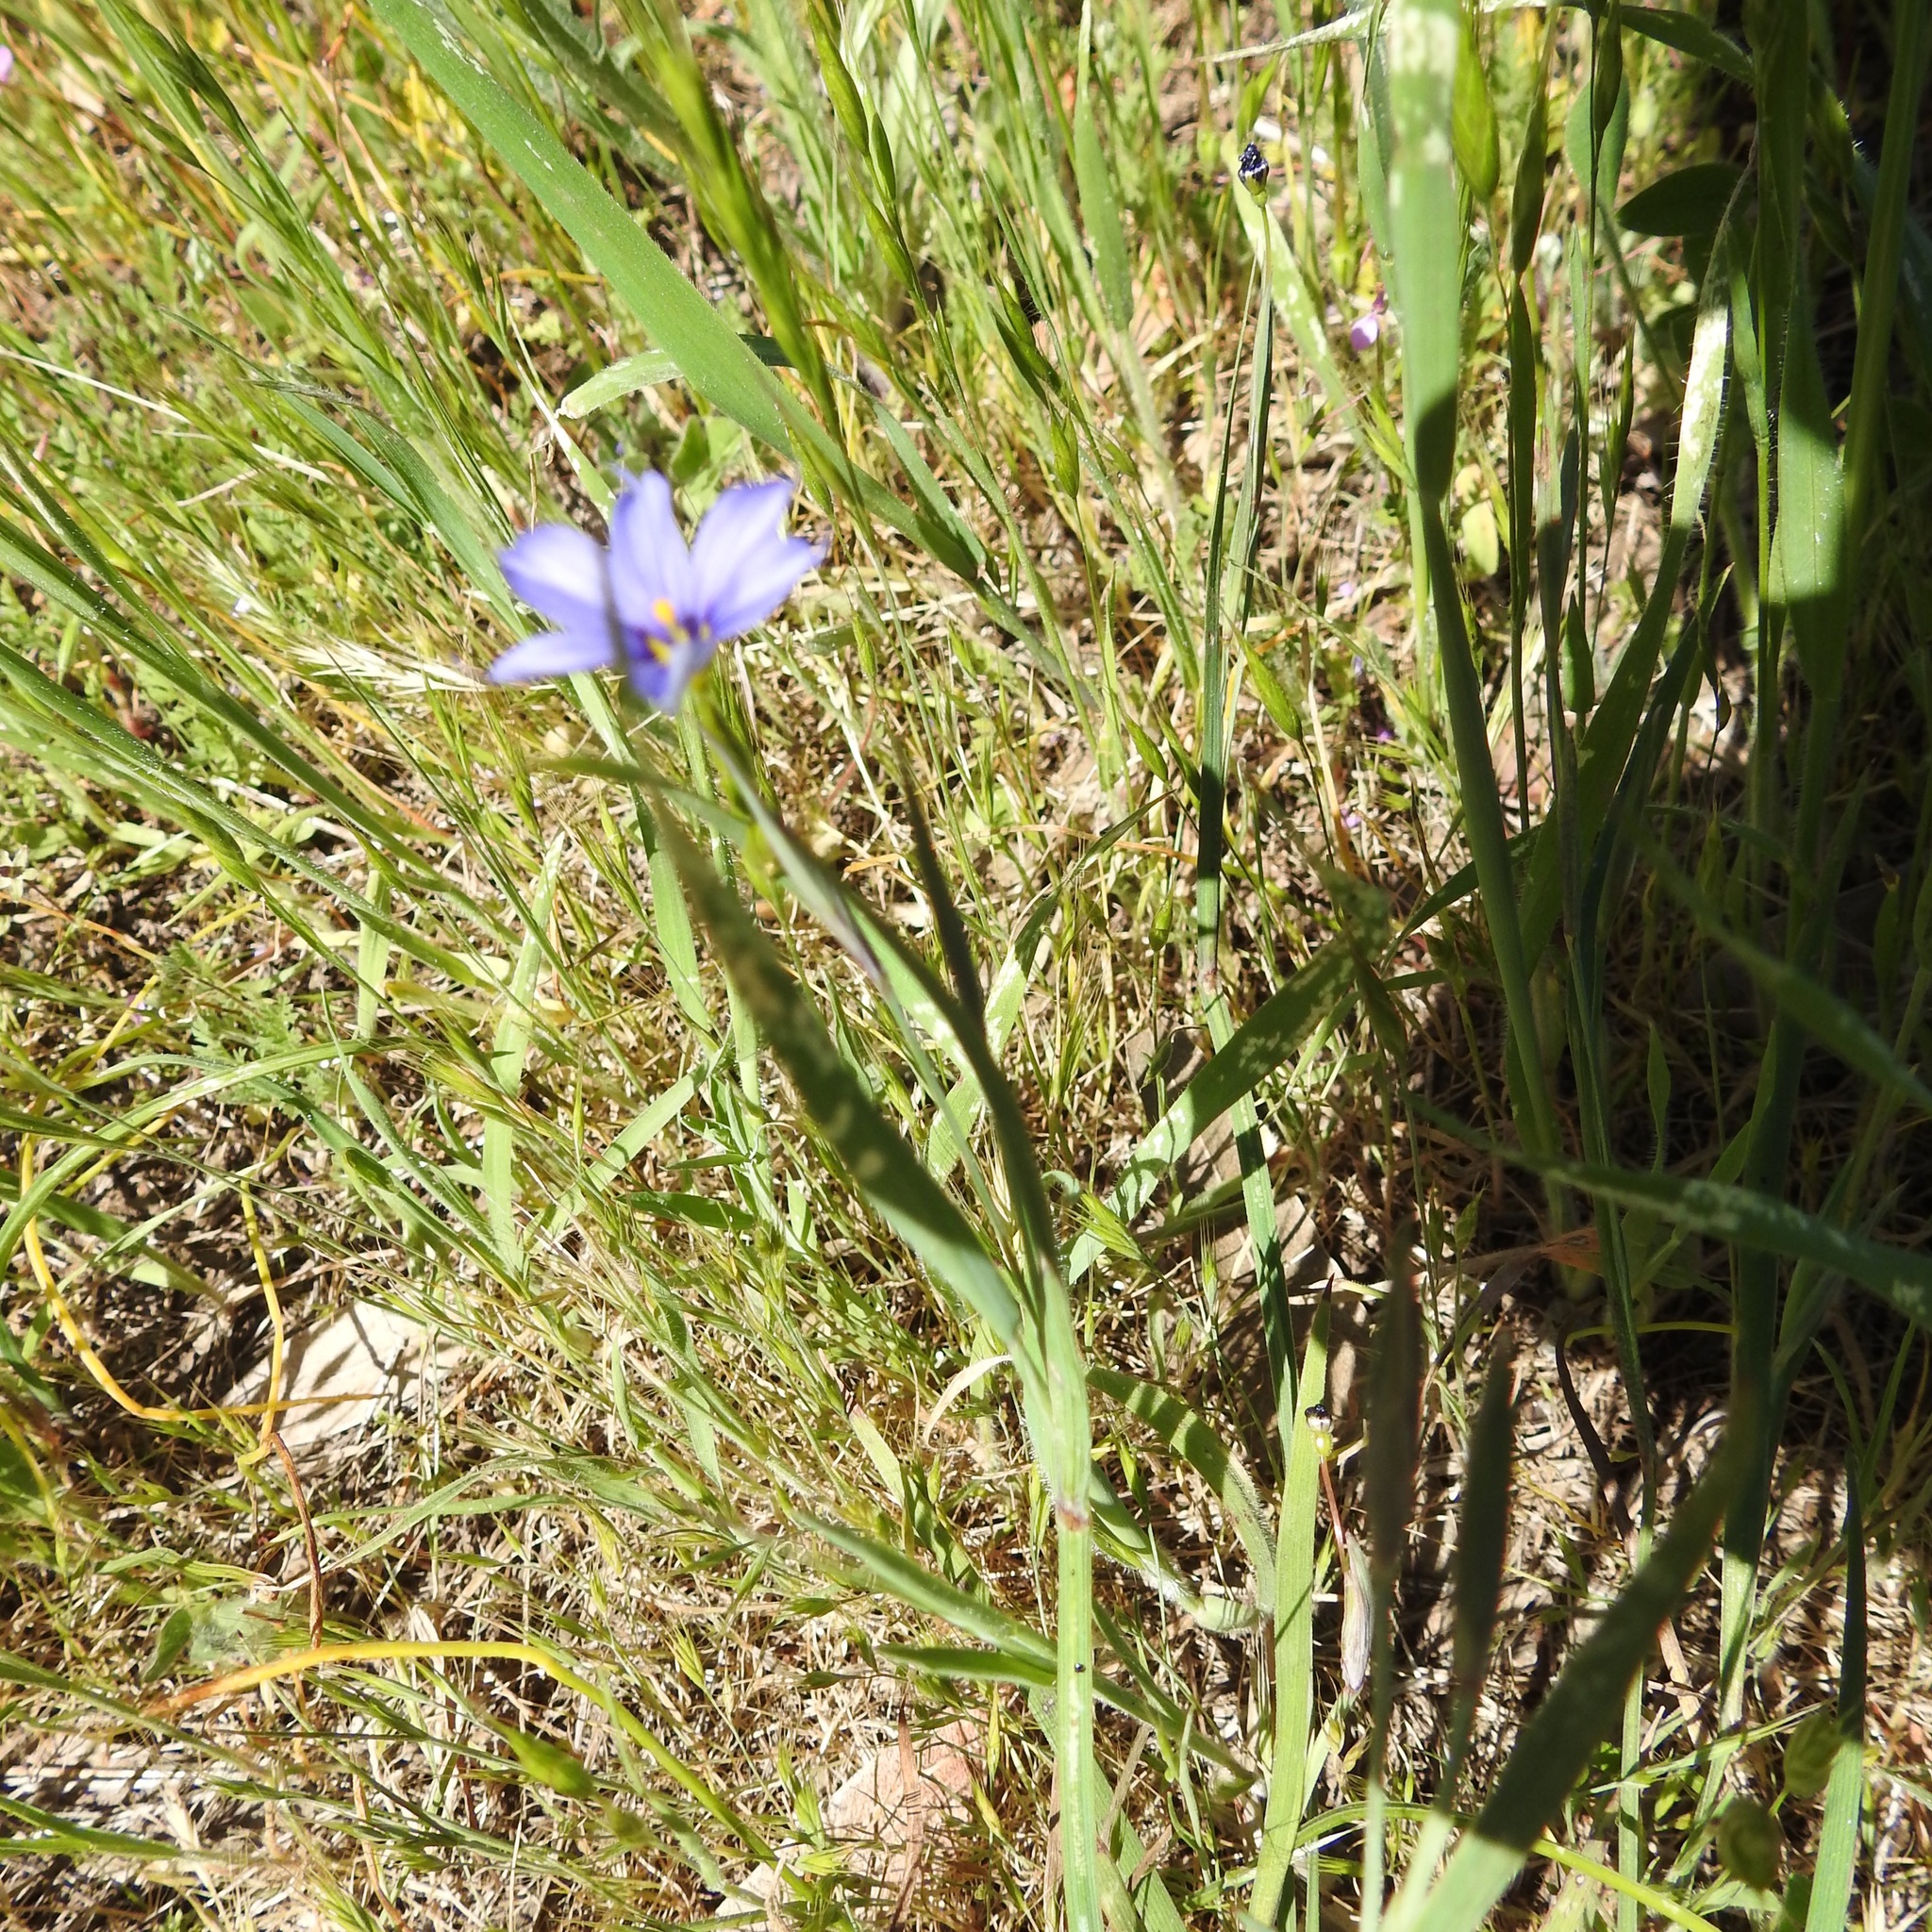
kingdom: Plantae
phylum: Tracheophyta
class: Liliopsida
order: Asparagales
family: Iridaceae
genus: Sisyrinchium
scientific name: Sisyrinchium bellum
